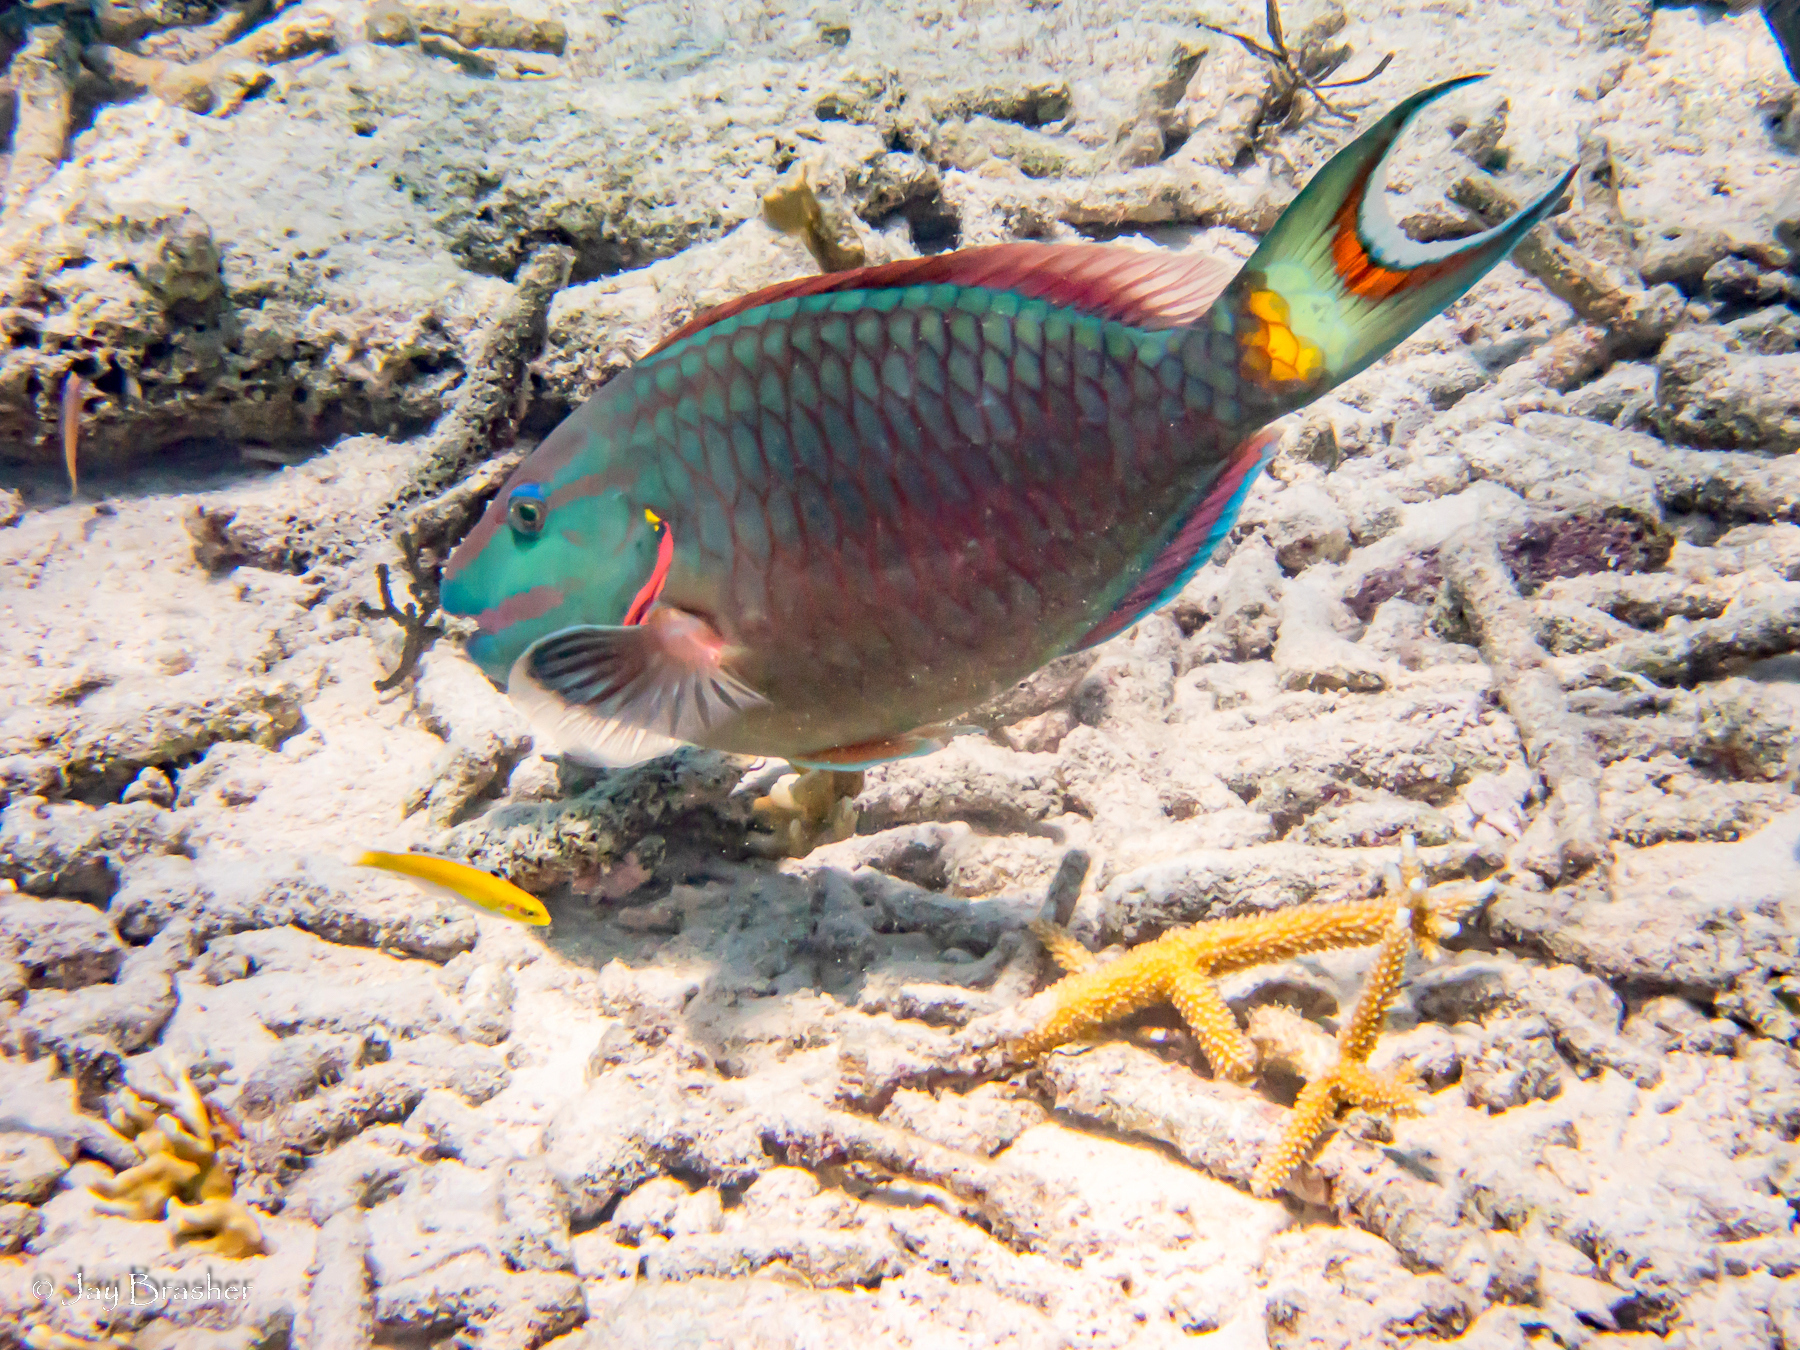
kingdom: Animalia
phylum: Chordata
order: Perciformes
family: Scaridae
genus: Sparisoma
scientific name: Sparisoma viride
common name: Stoplight parrotfish
